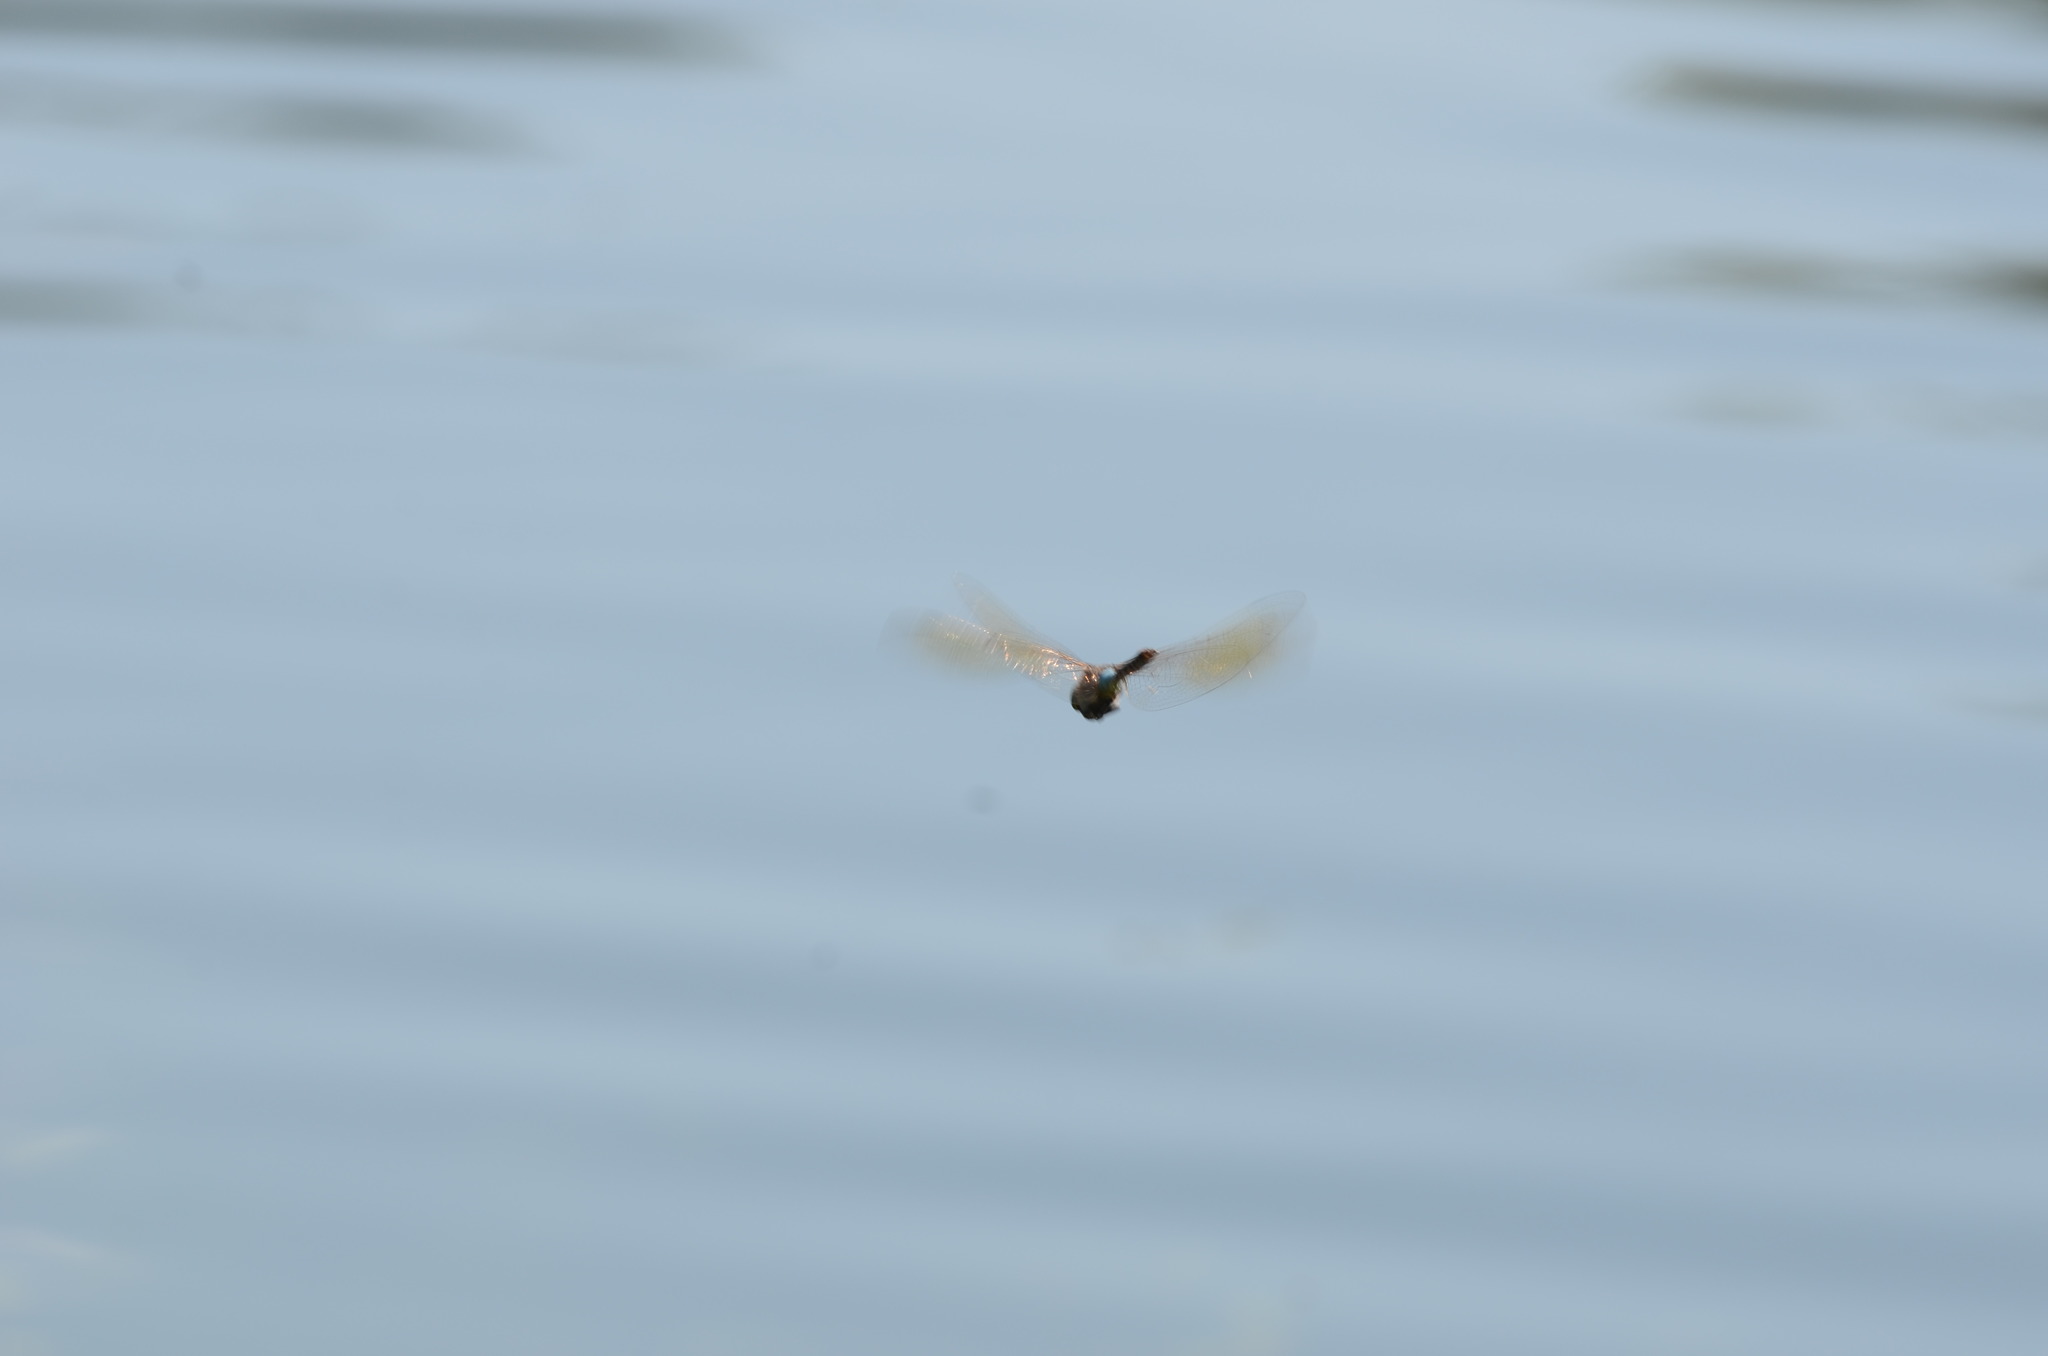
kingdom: Animalia
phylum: Arthropoda
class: Insecta
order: Odonata
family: Aeshnidae
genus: Anax
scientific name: Anax parthenope
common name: Lesser emperor
